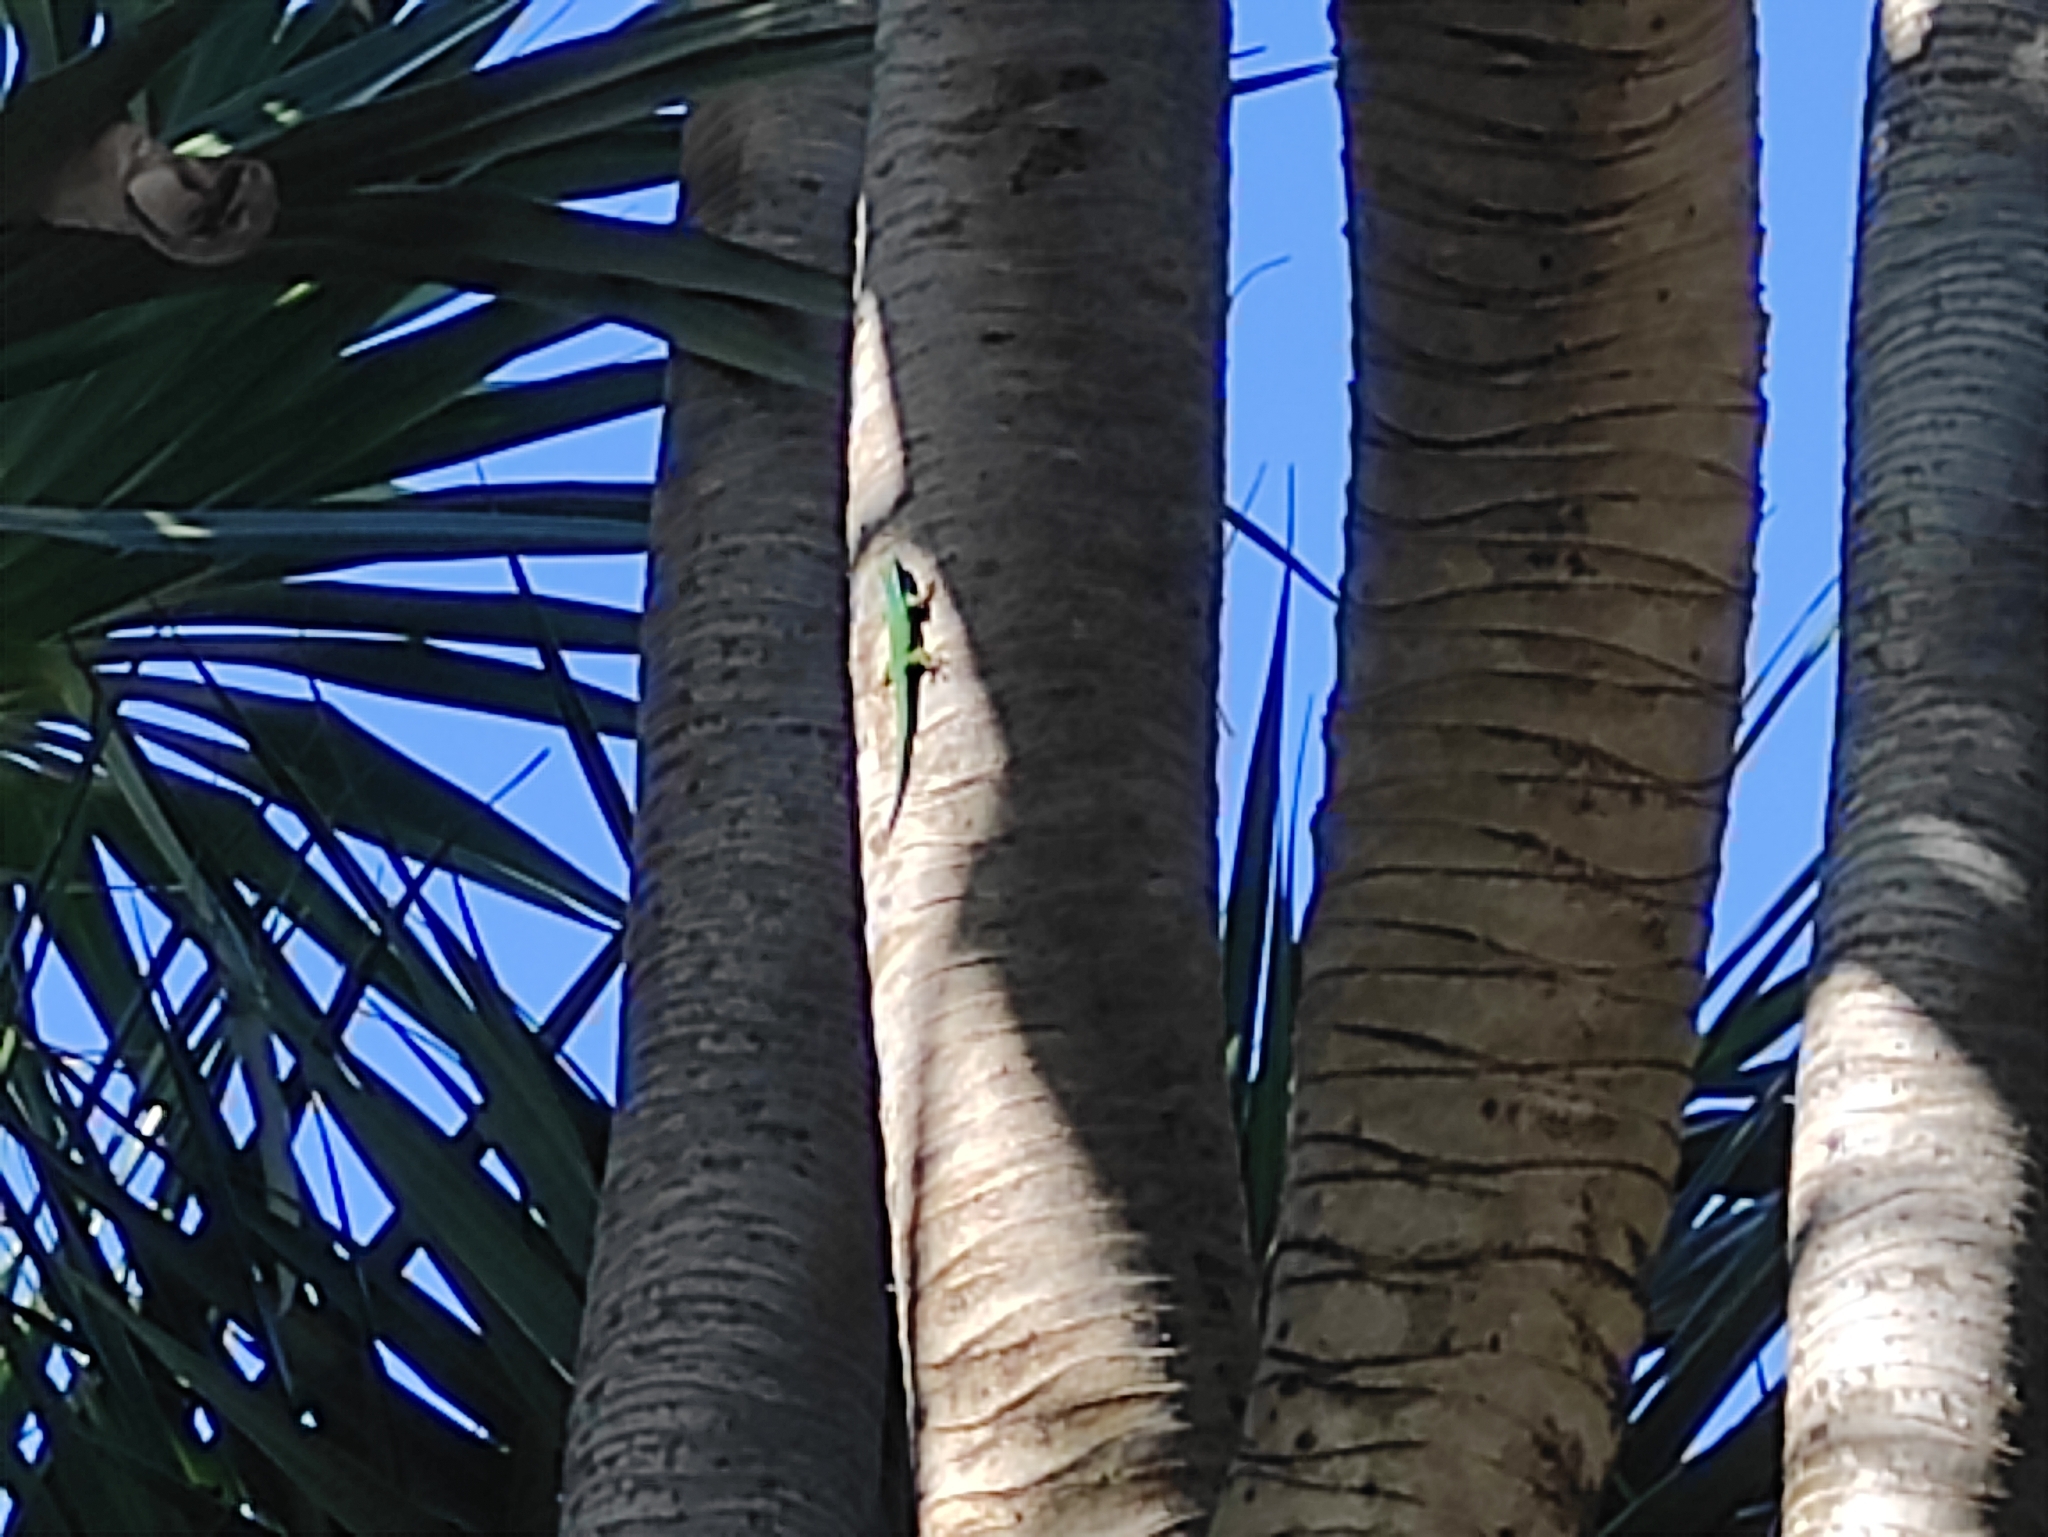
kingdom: Animalia
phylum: Chordata
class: Squamata
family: Gekkonidae
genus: Phelsuma
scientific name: Phelsuma inexpectata
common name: Manapany day gecko
